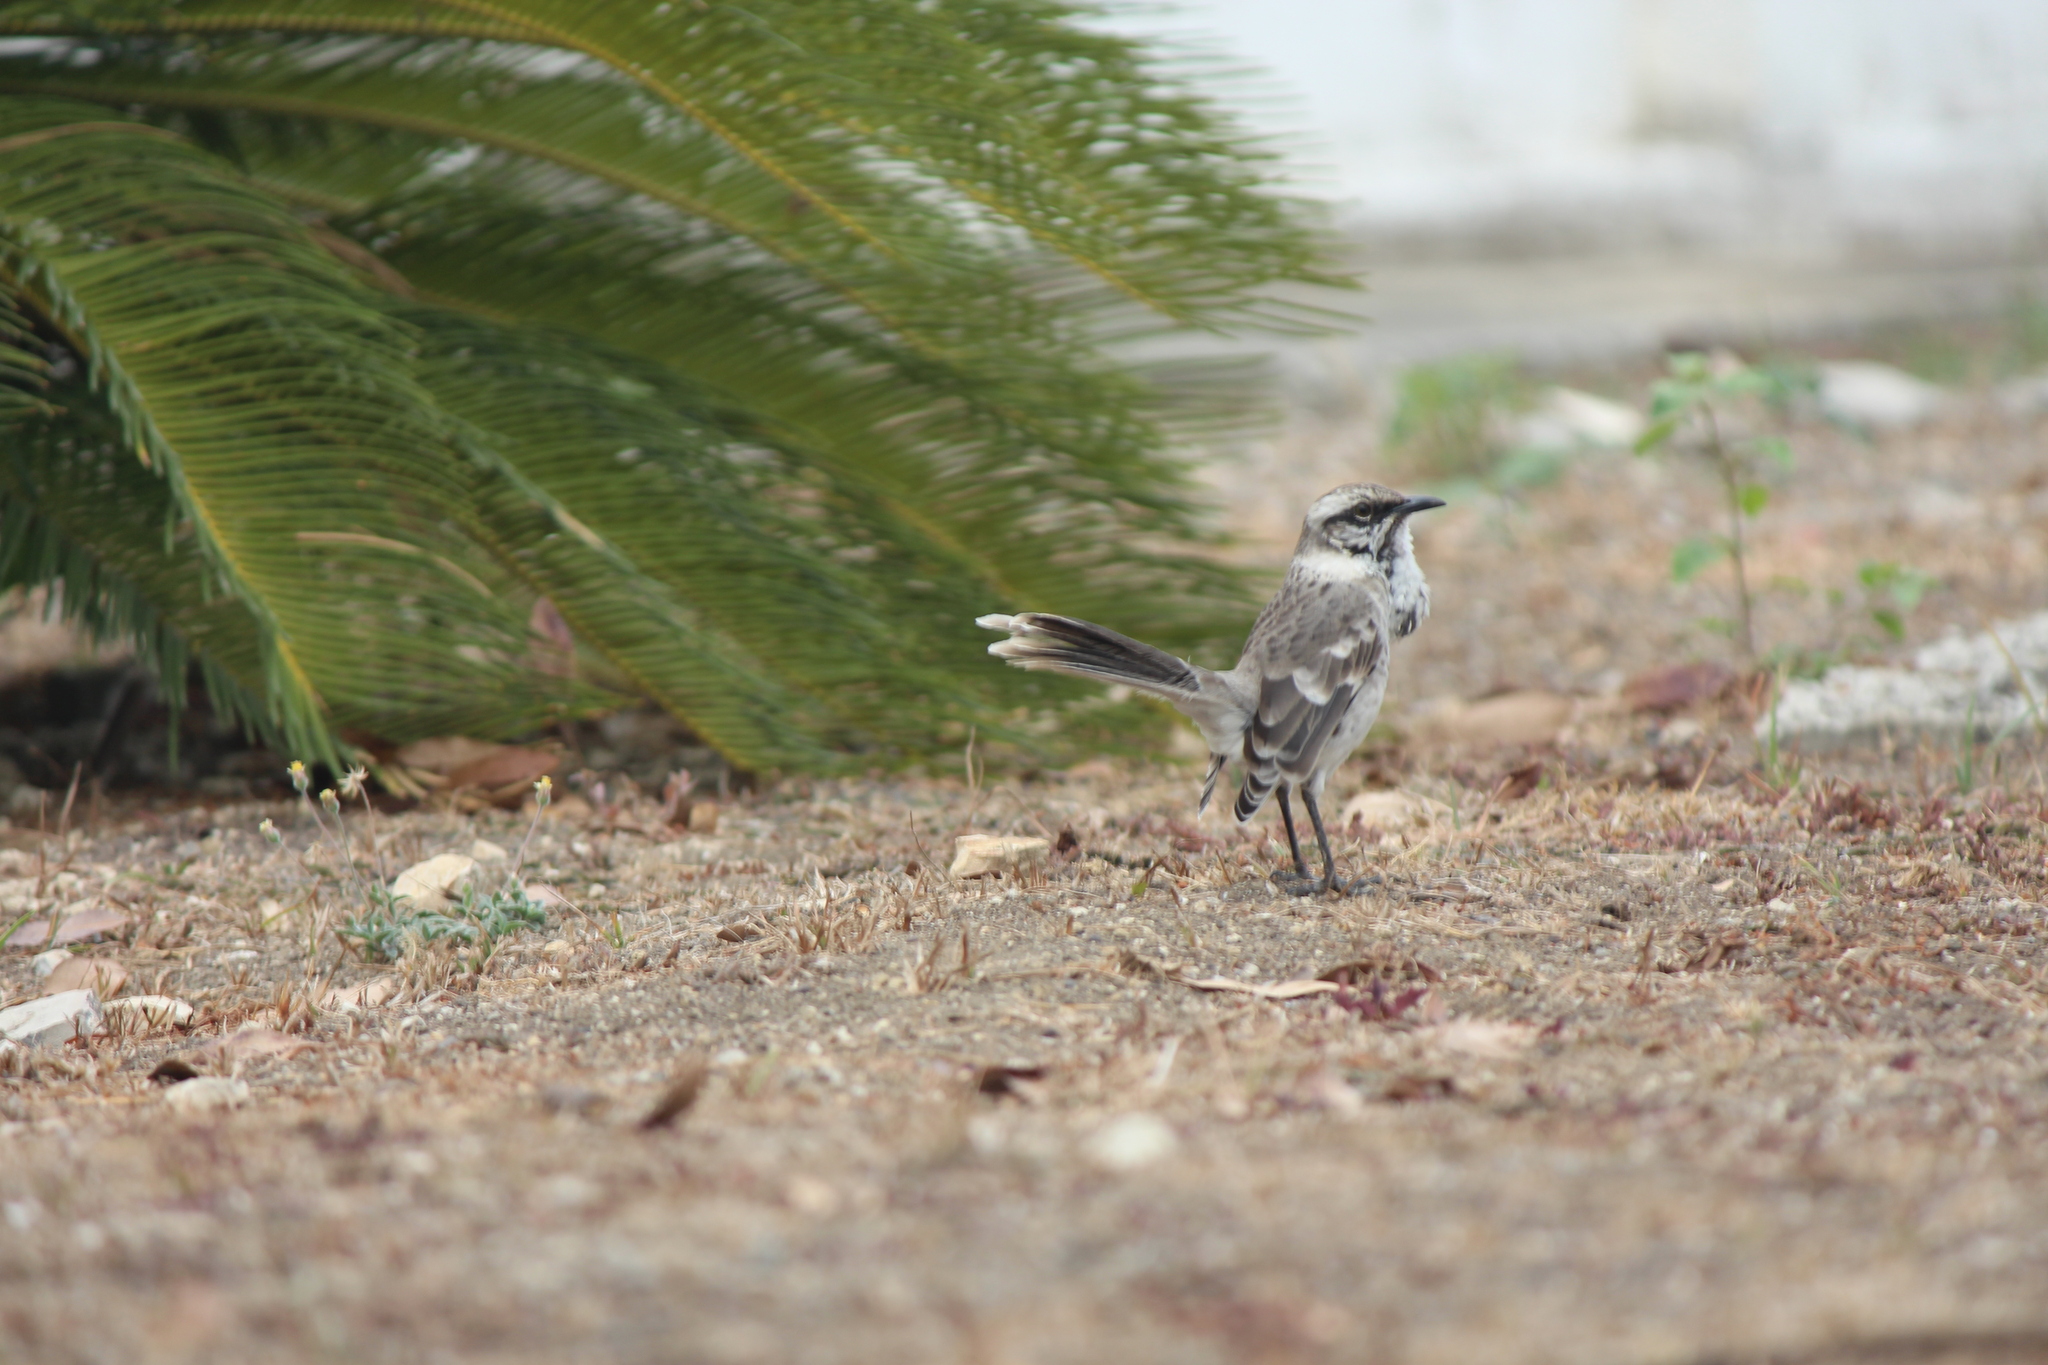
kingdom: Animalia
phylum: Chordata
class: Aves
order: Passeriformes
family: Mimidae
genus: Mimus
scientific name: Mimus longicaudatus
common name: Long-tailed mockingbird
